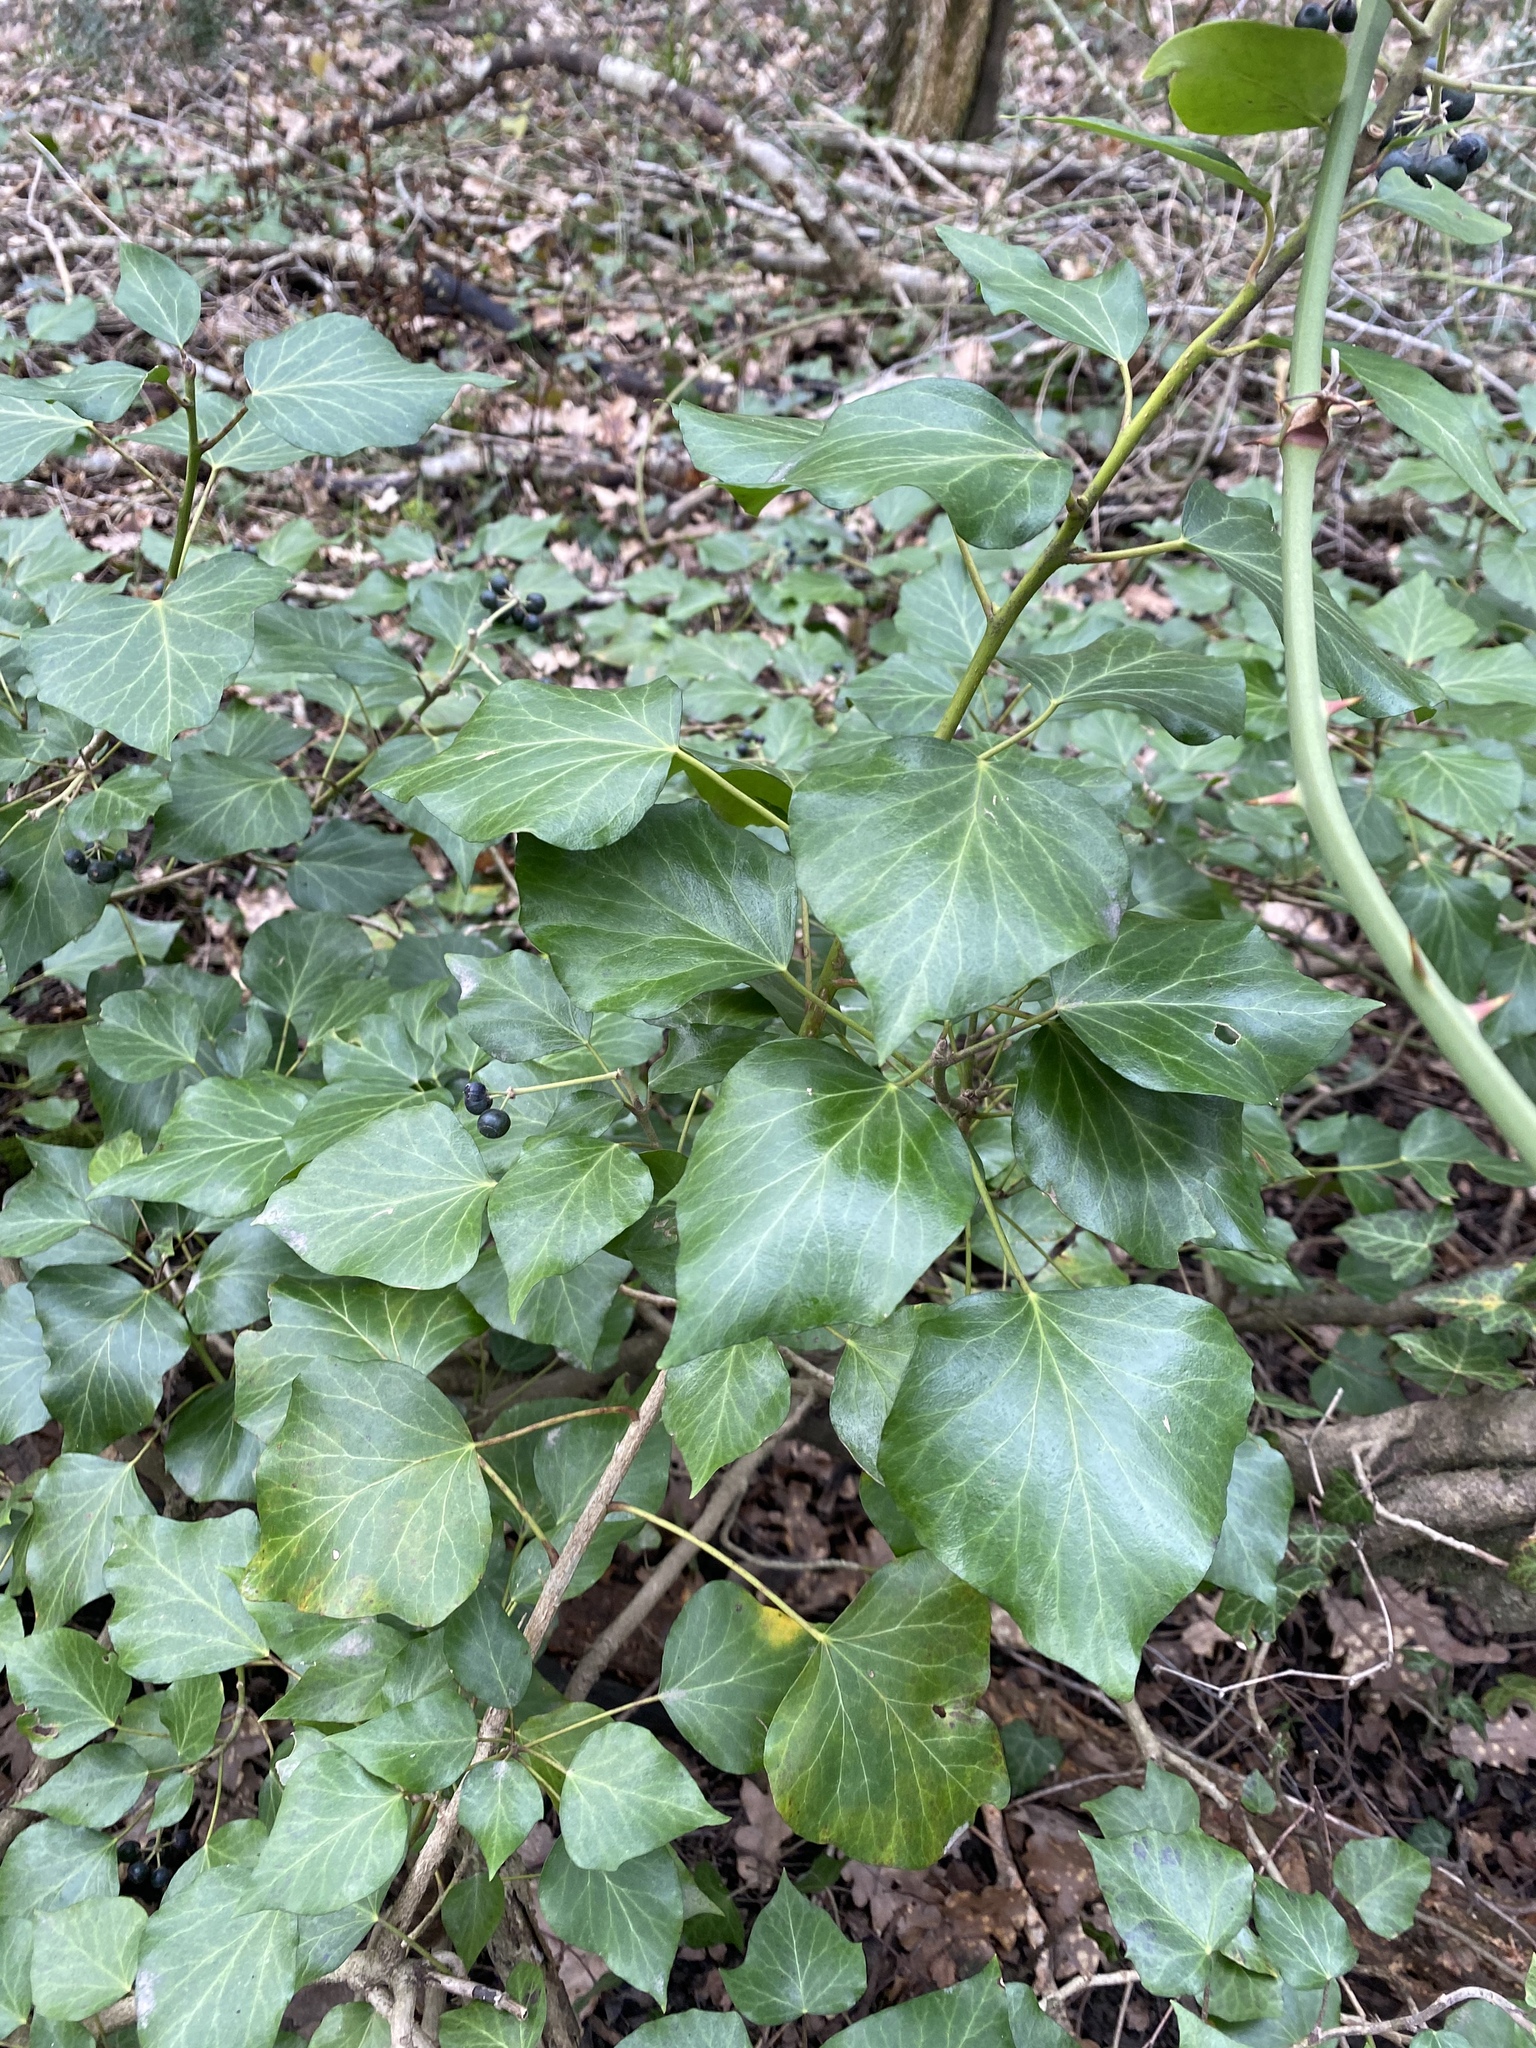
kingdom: Plantae
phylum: Tracheophyta
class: Magnoliopsida
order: Apiales
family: Araliaceae
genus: Hedera
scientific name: Hedera helix
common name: Ivy
